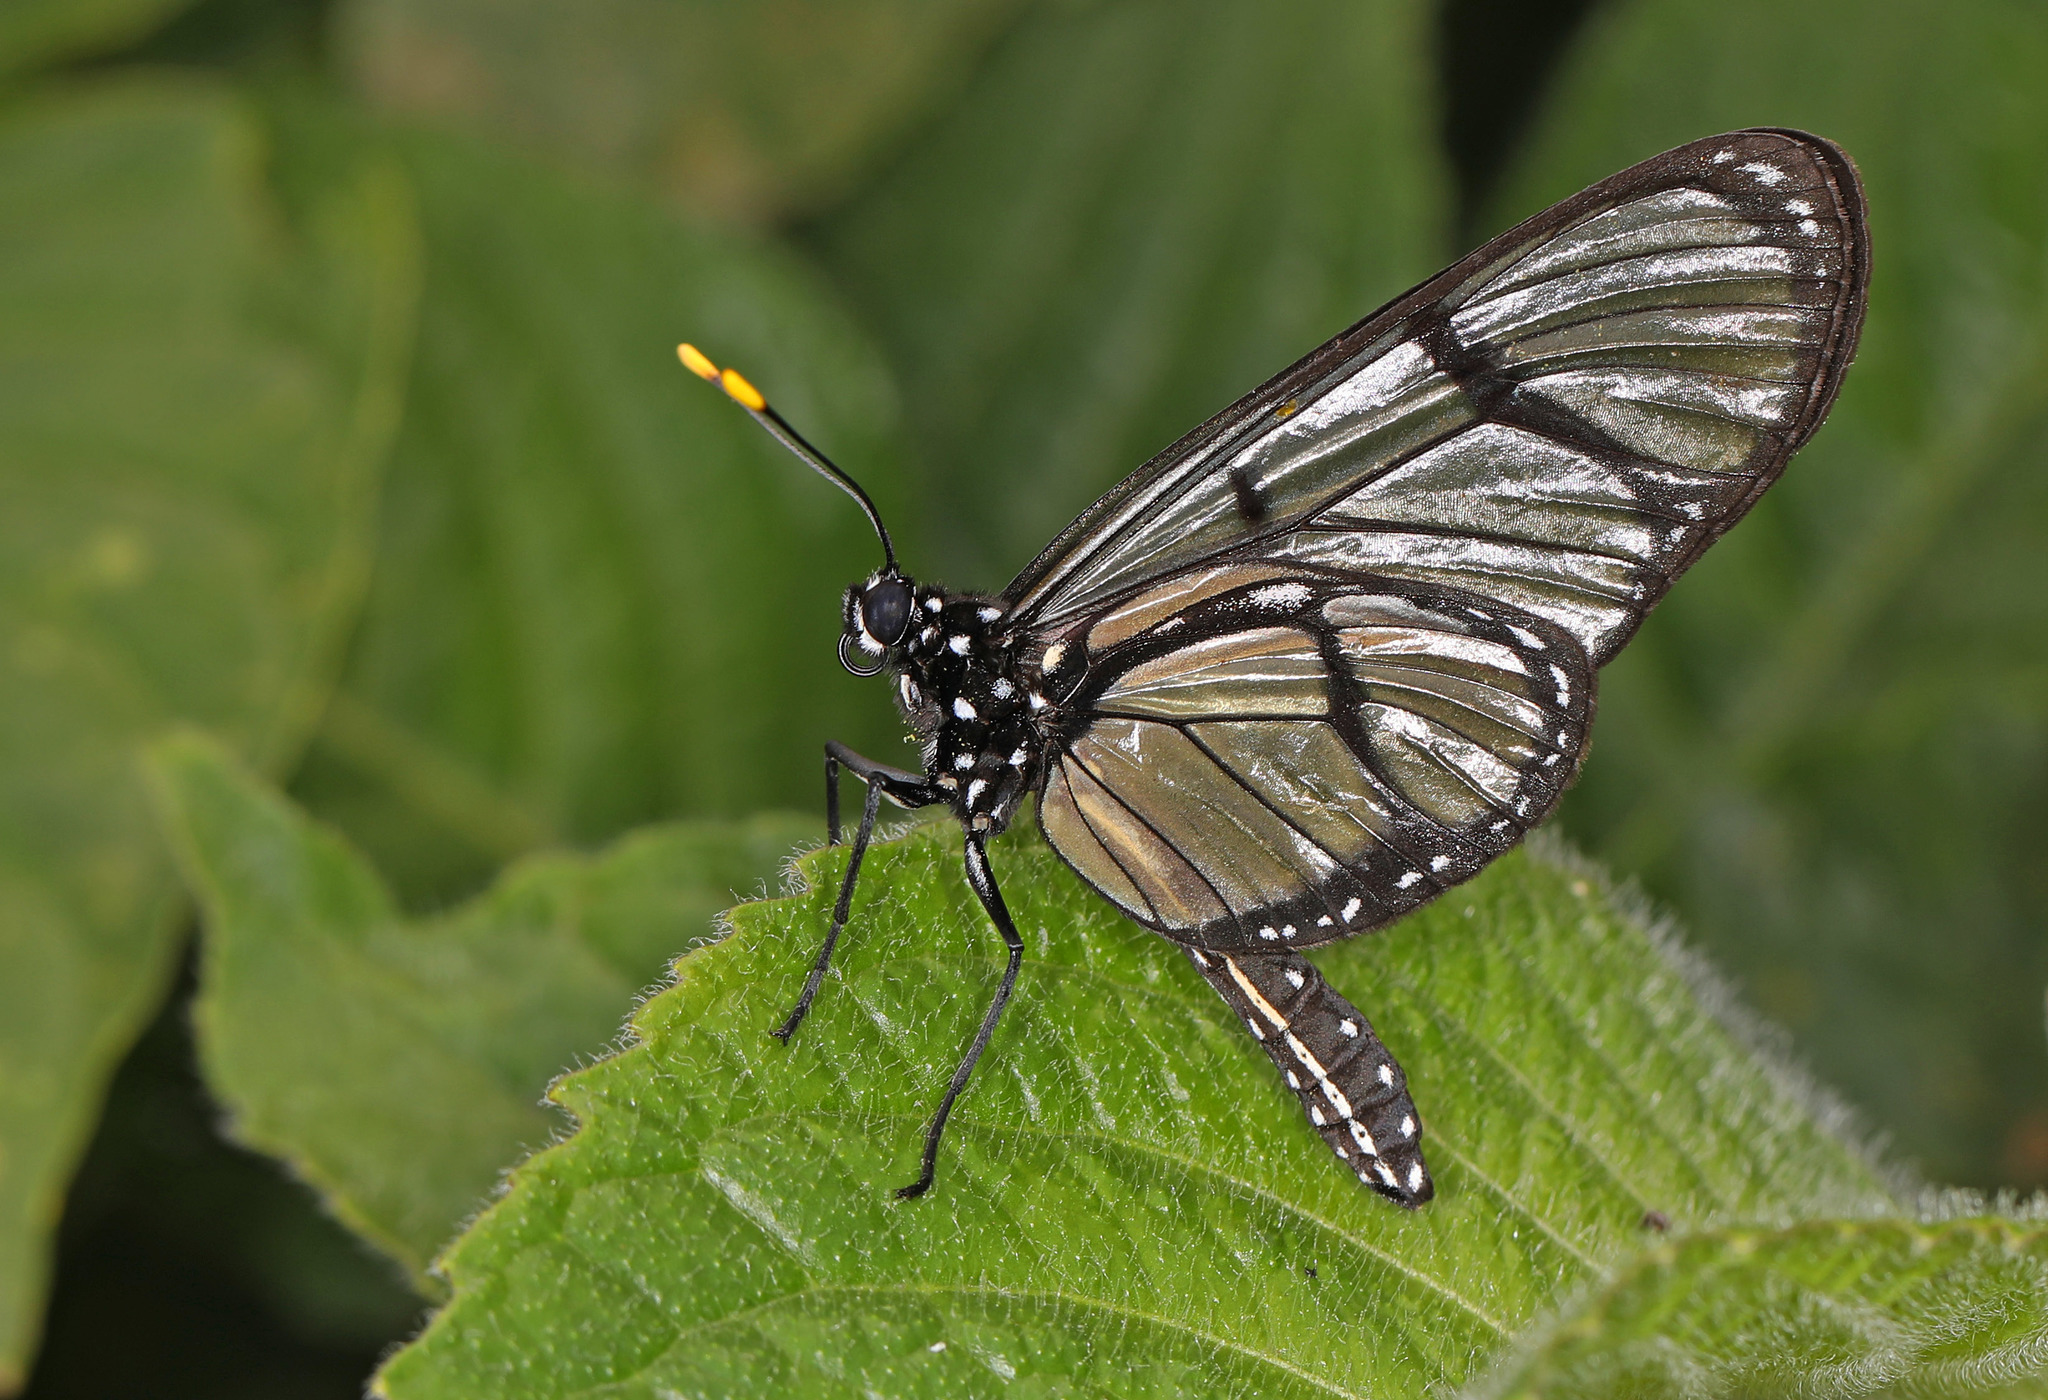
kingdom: Animalia
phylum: Arthropoda
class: Insecta
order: Lepidoptera
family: Nymphalidae
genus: Methona
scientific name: Methona confusa
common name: Confusa tigerwing
